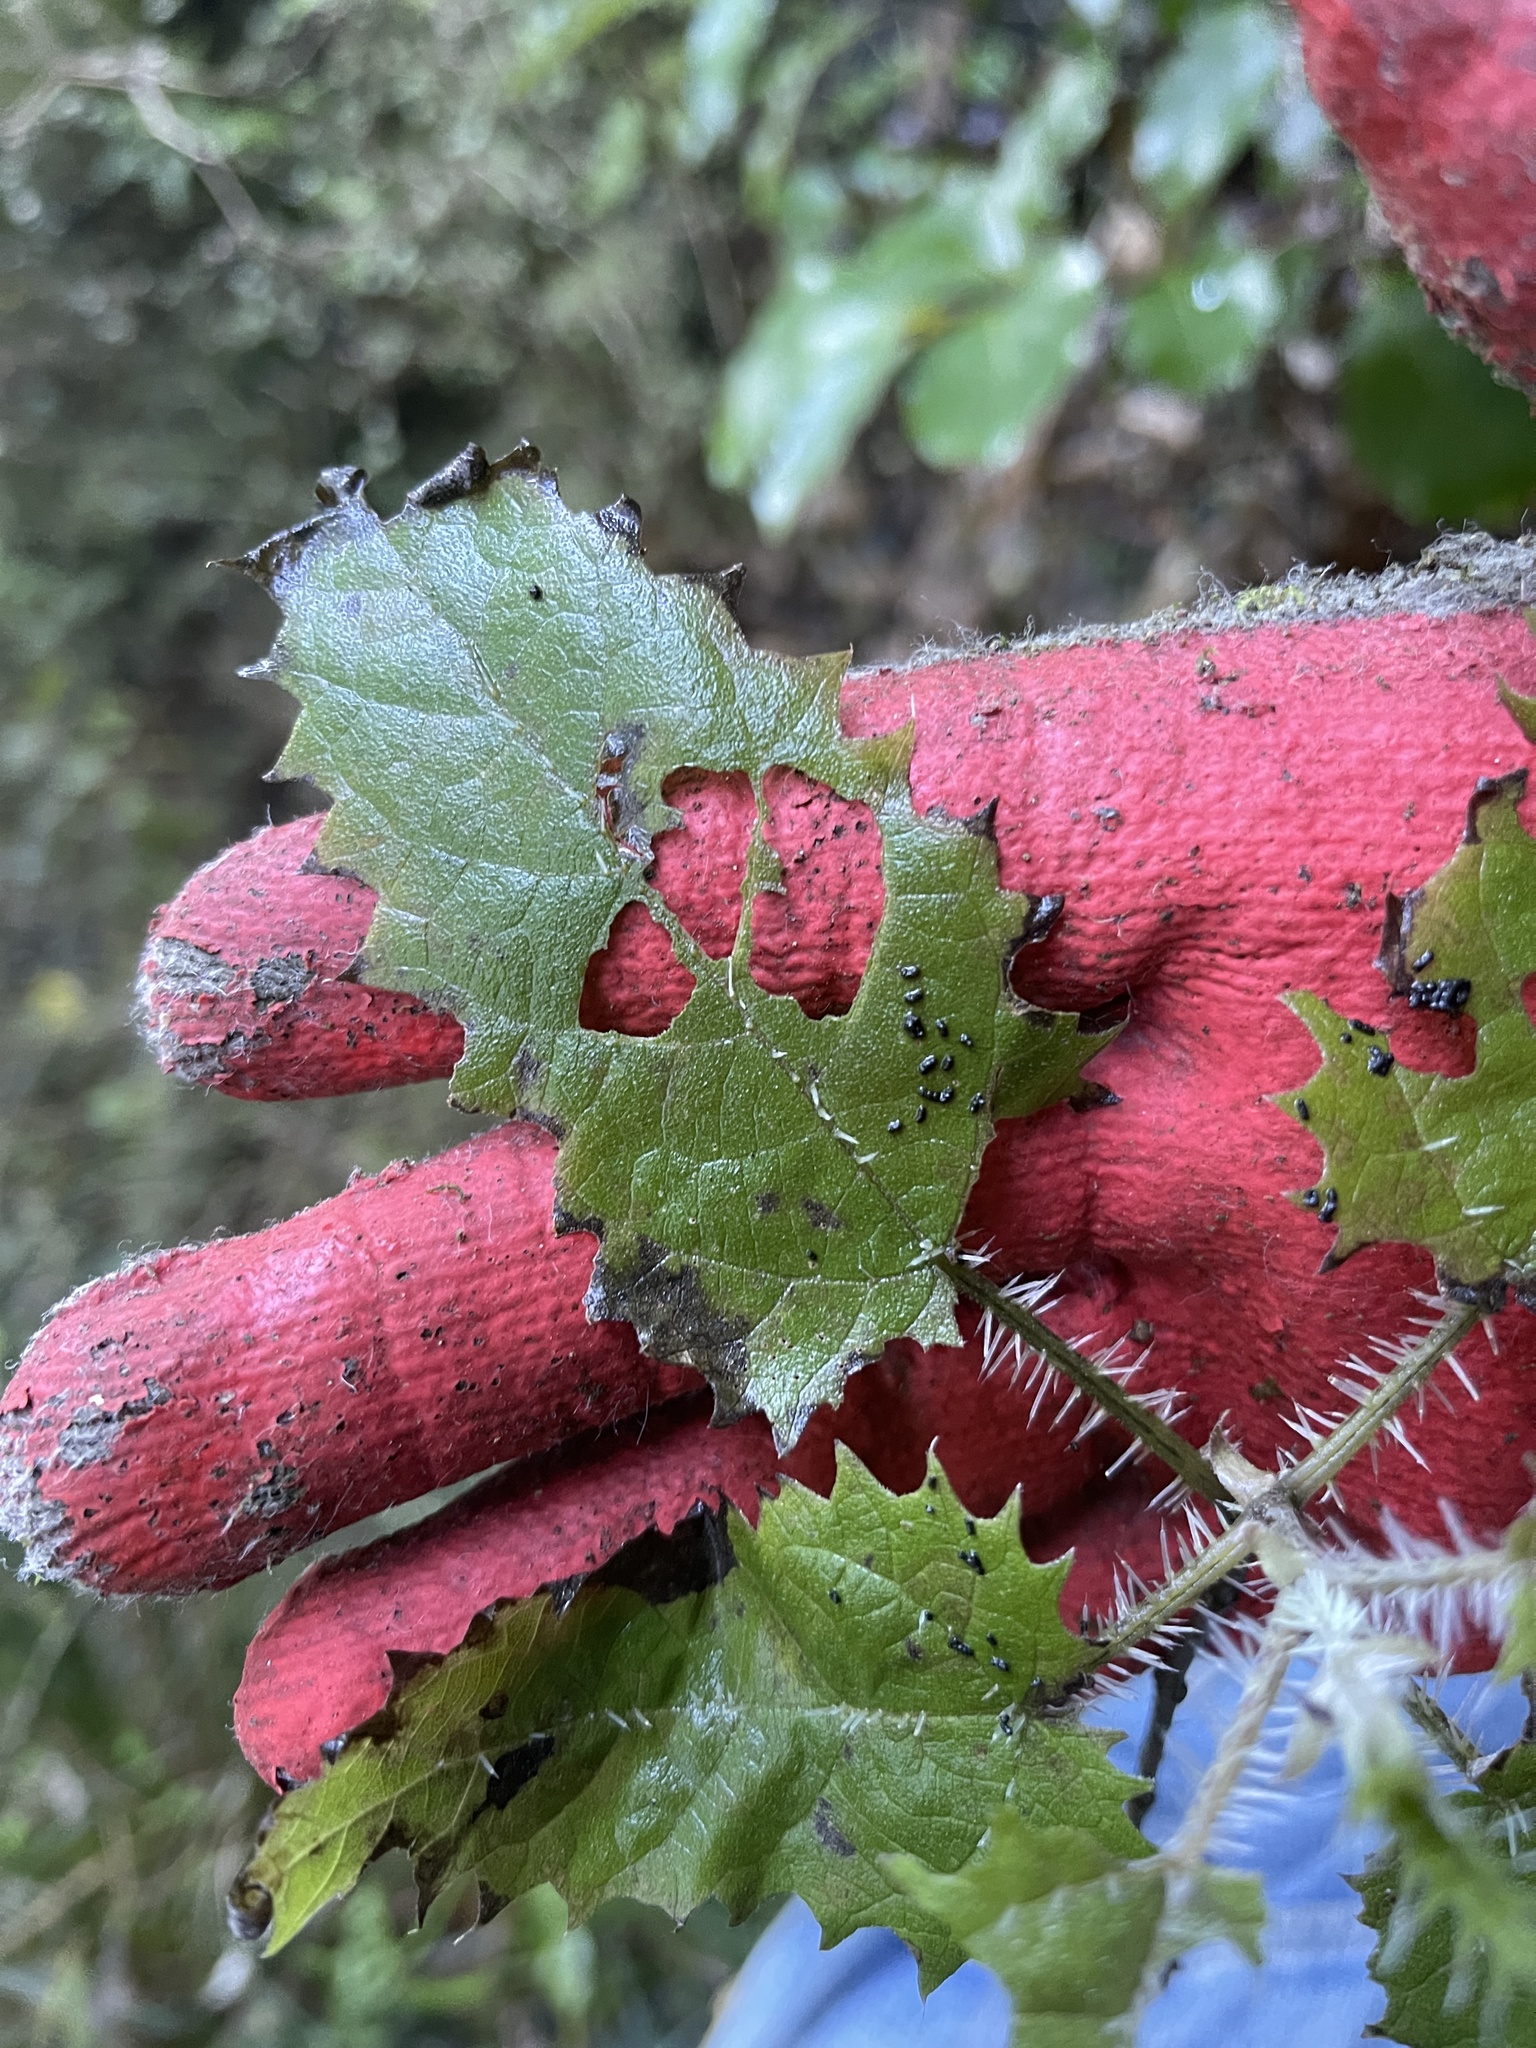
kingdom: Animalia
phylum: Arthropoda
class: Insecta
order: Lepidoptera
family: Crambidae
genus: Udea
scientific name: Udea marmarina
